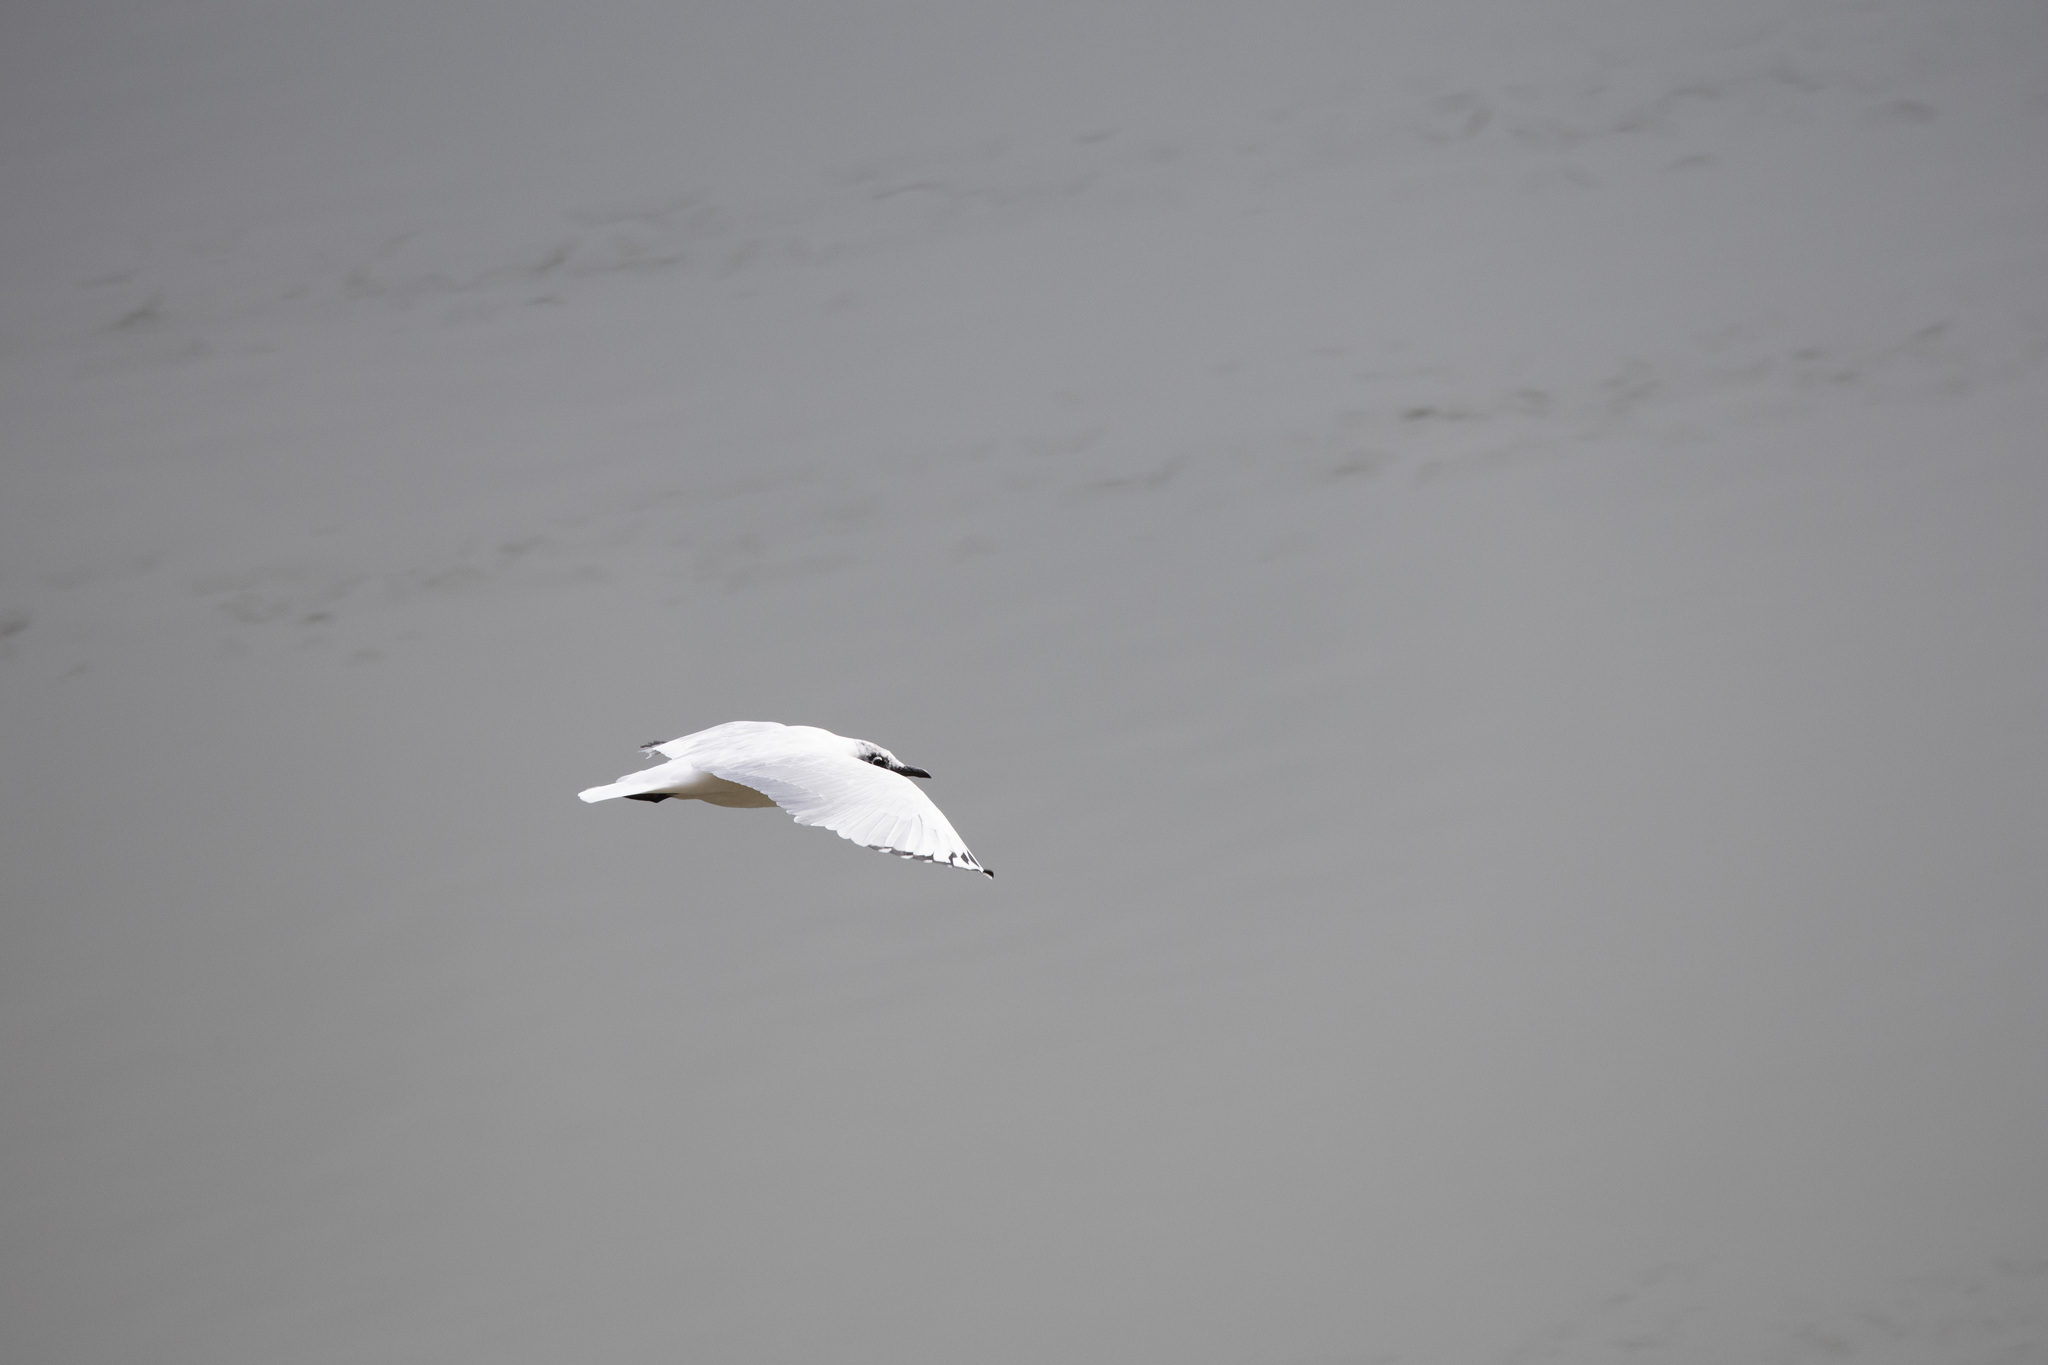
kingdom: Animalia
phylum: Chordata
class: Aves
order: Charadriiformes
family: Laridae
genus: Chroicocephalus
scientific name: Chroicocephalus serranus
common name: Andean gull
